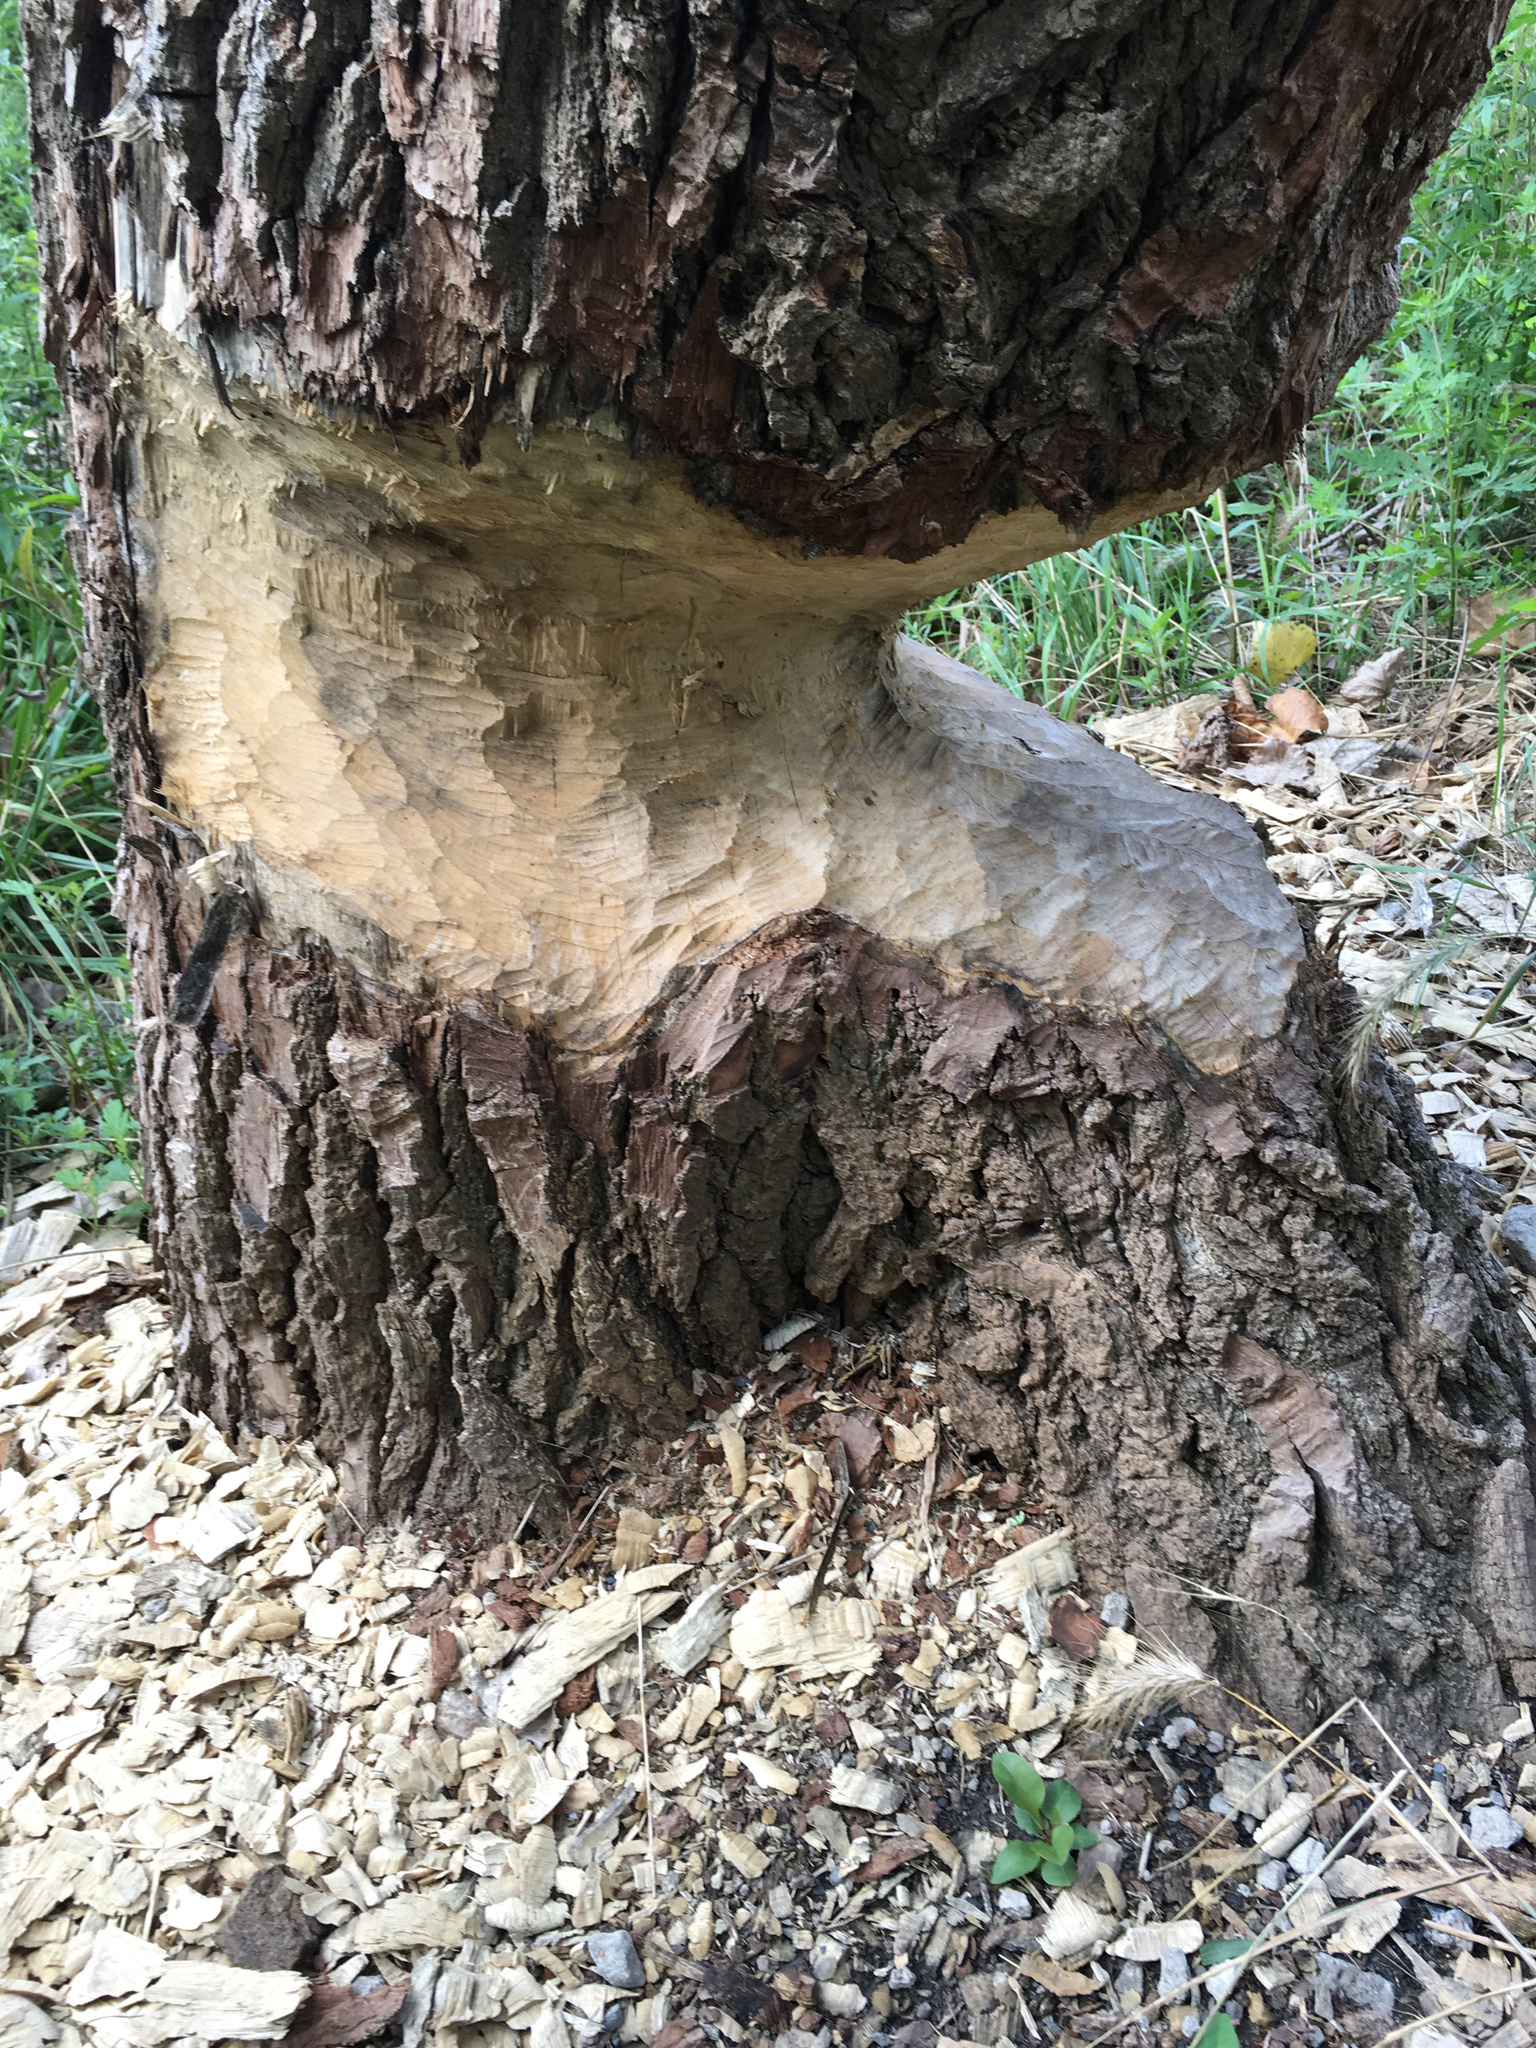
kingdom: Animalia
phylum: Chordata
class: Mammalia
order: Rodentia
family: Castoridae
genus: Castor
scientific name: Castor canadensis
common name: American beaver
